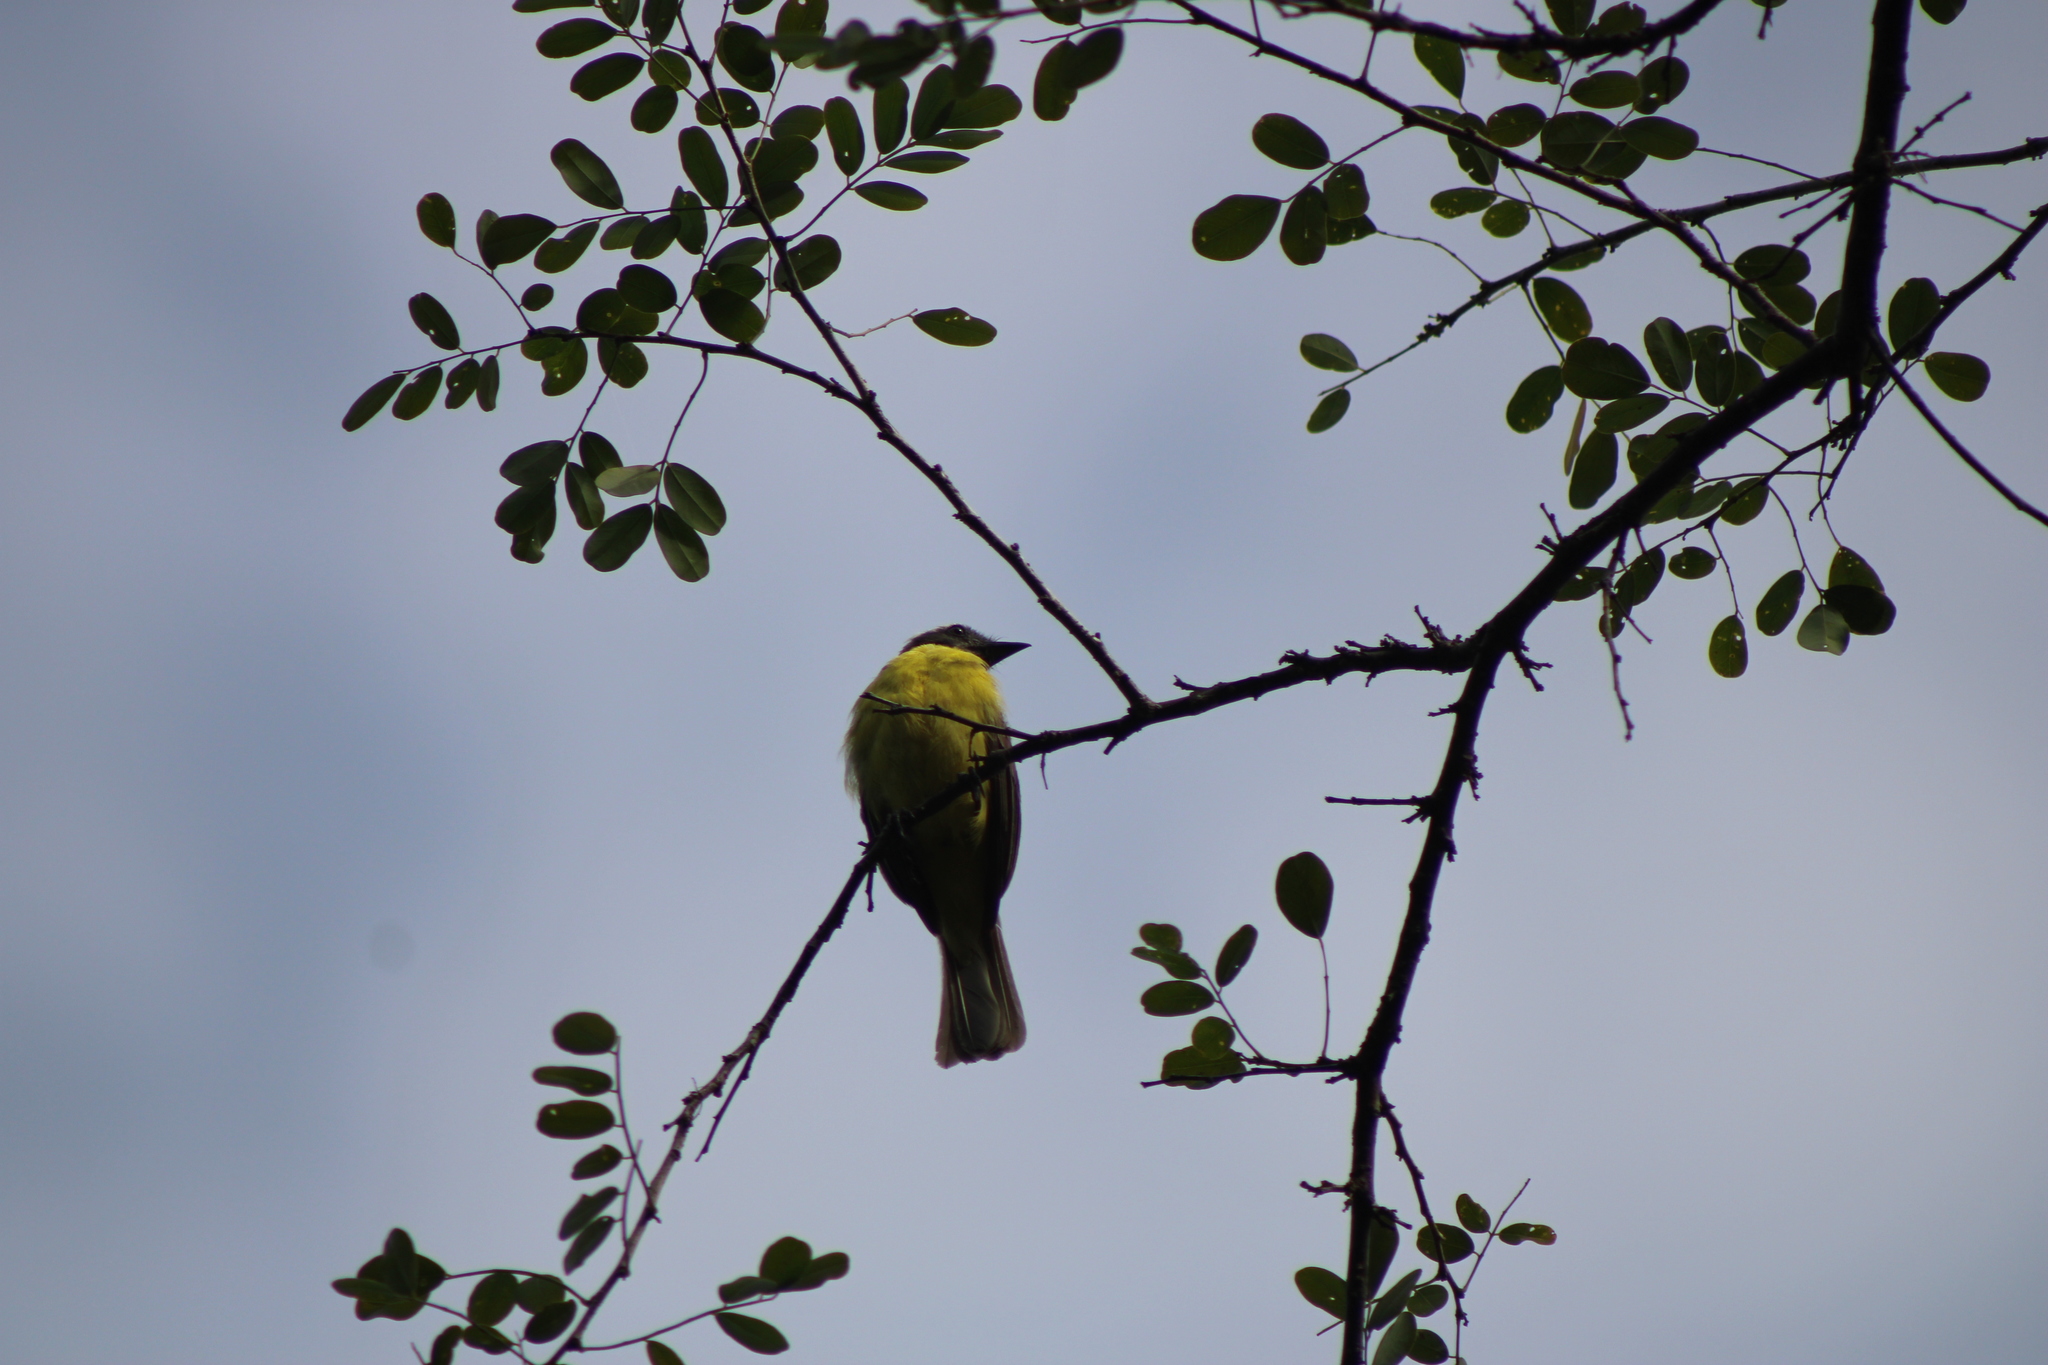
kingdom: Animalia
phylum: Chordata
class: Aves
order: Passeriformes
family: Tyrannidae
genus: Myiozetetes
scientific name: Myiozetetes similis
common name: Social flycatcher
